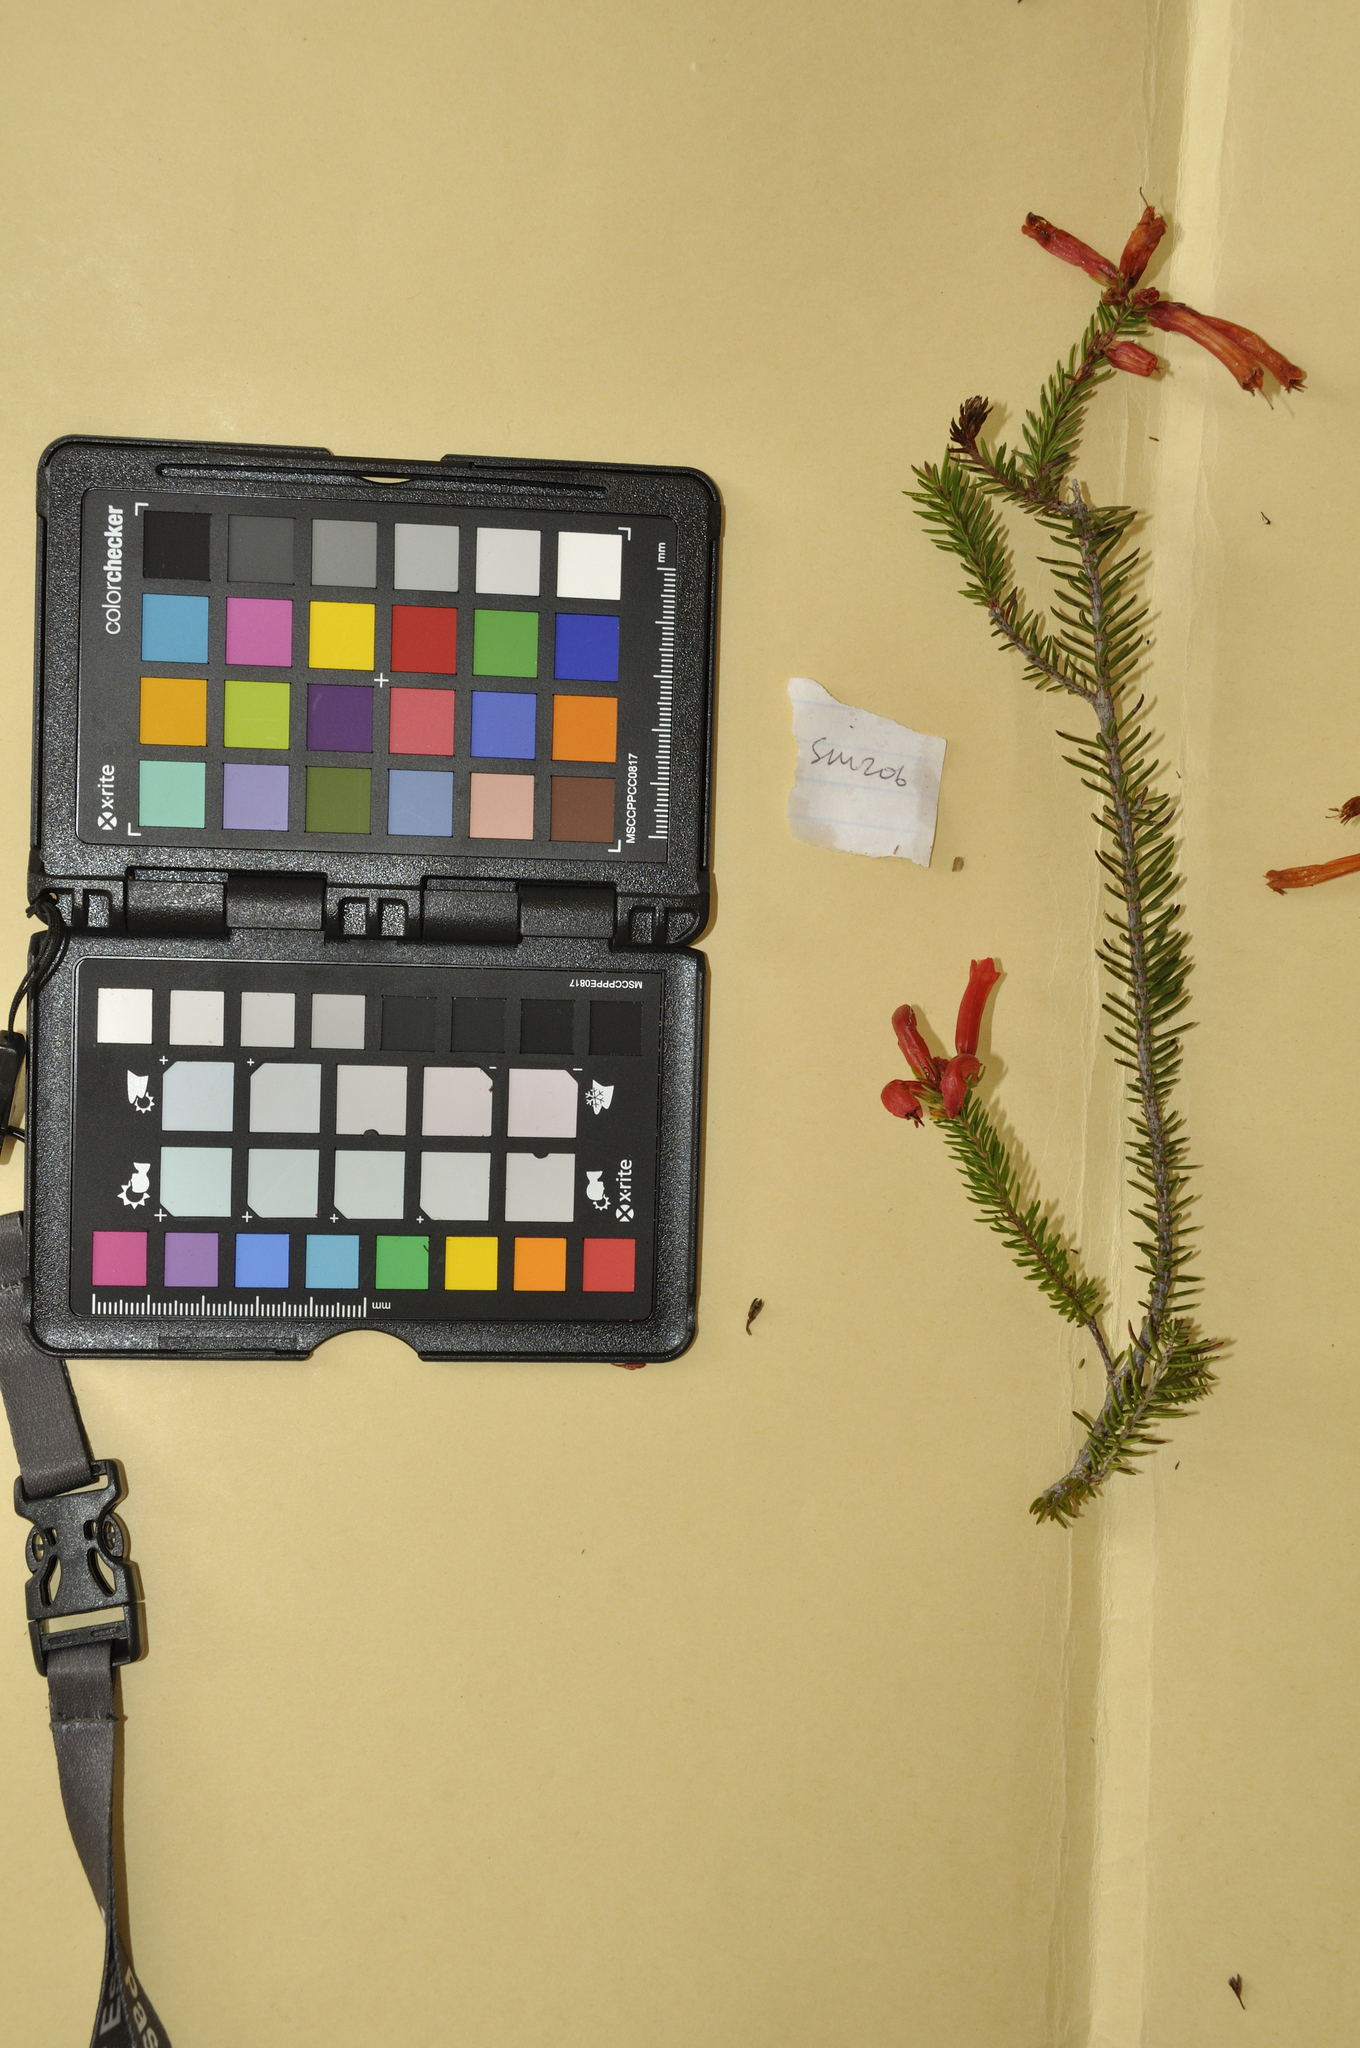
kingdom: Plantae
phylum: Tracheophyta
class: Magnoliopsida
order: Ericales
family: Ericaceae
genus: Erica
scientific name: Erica nevillei
